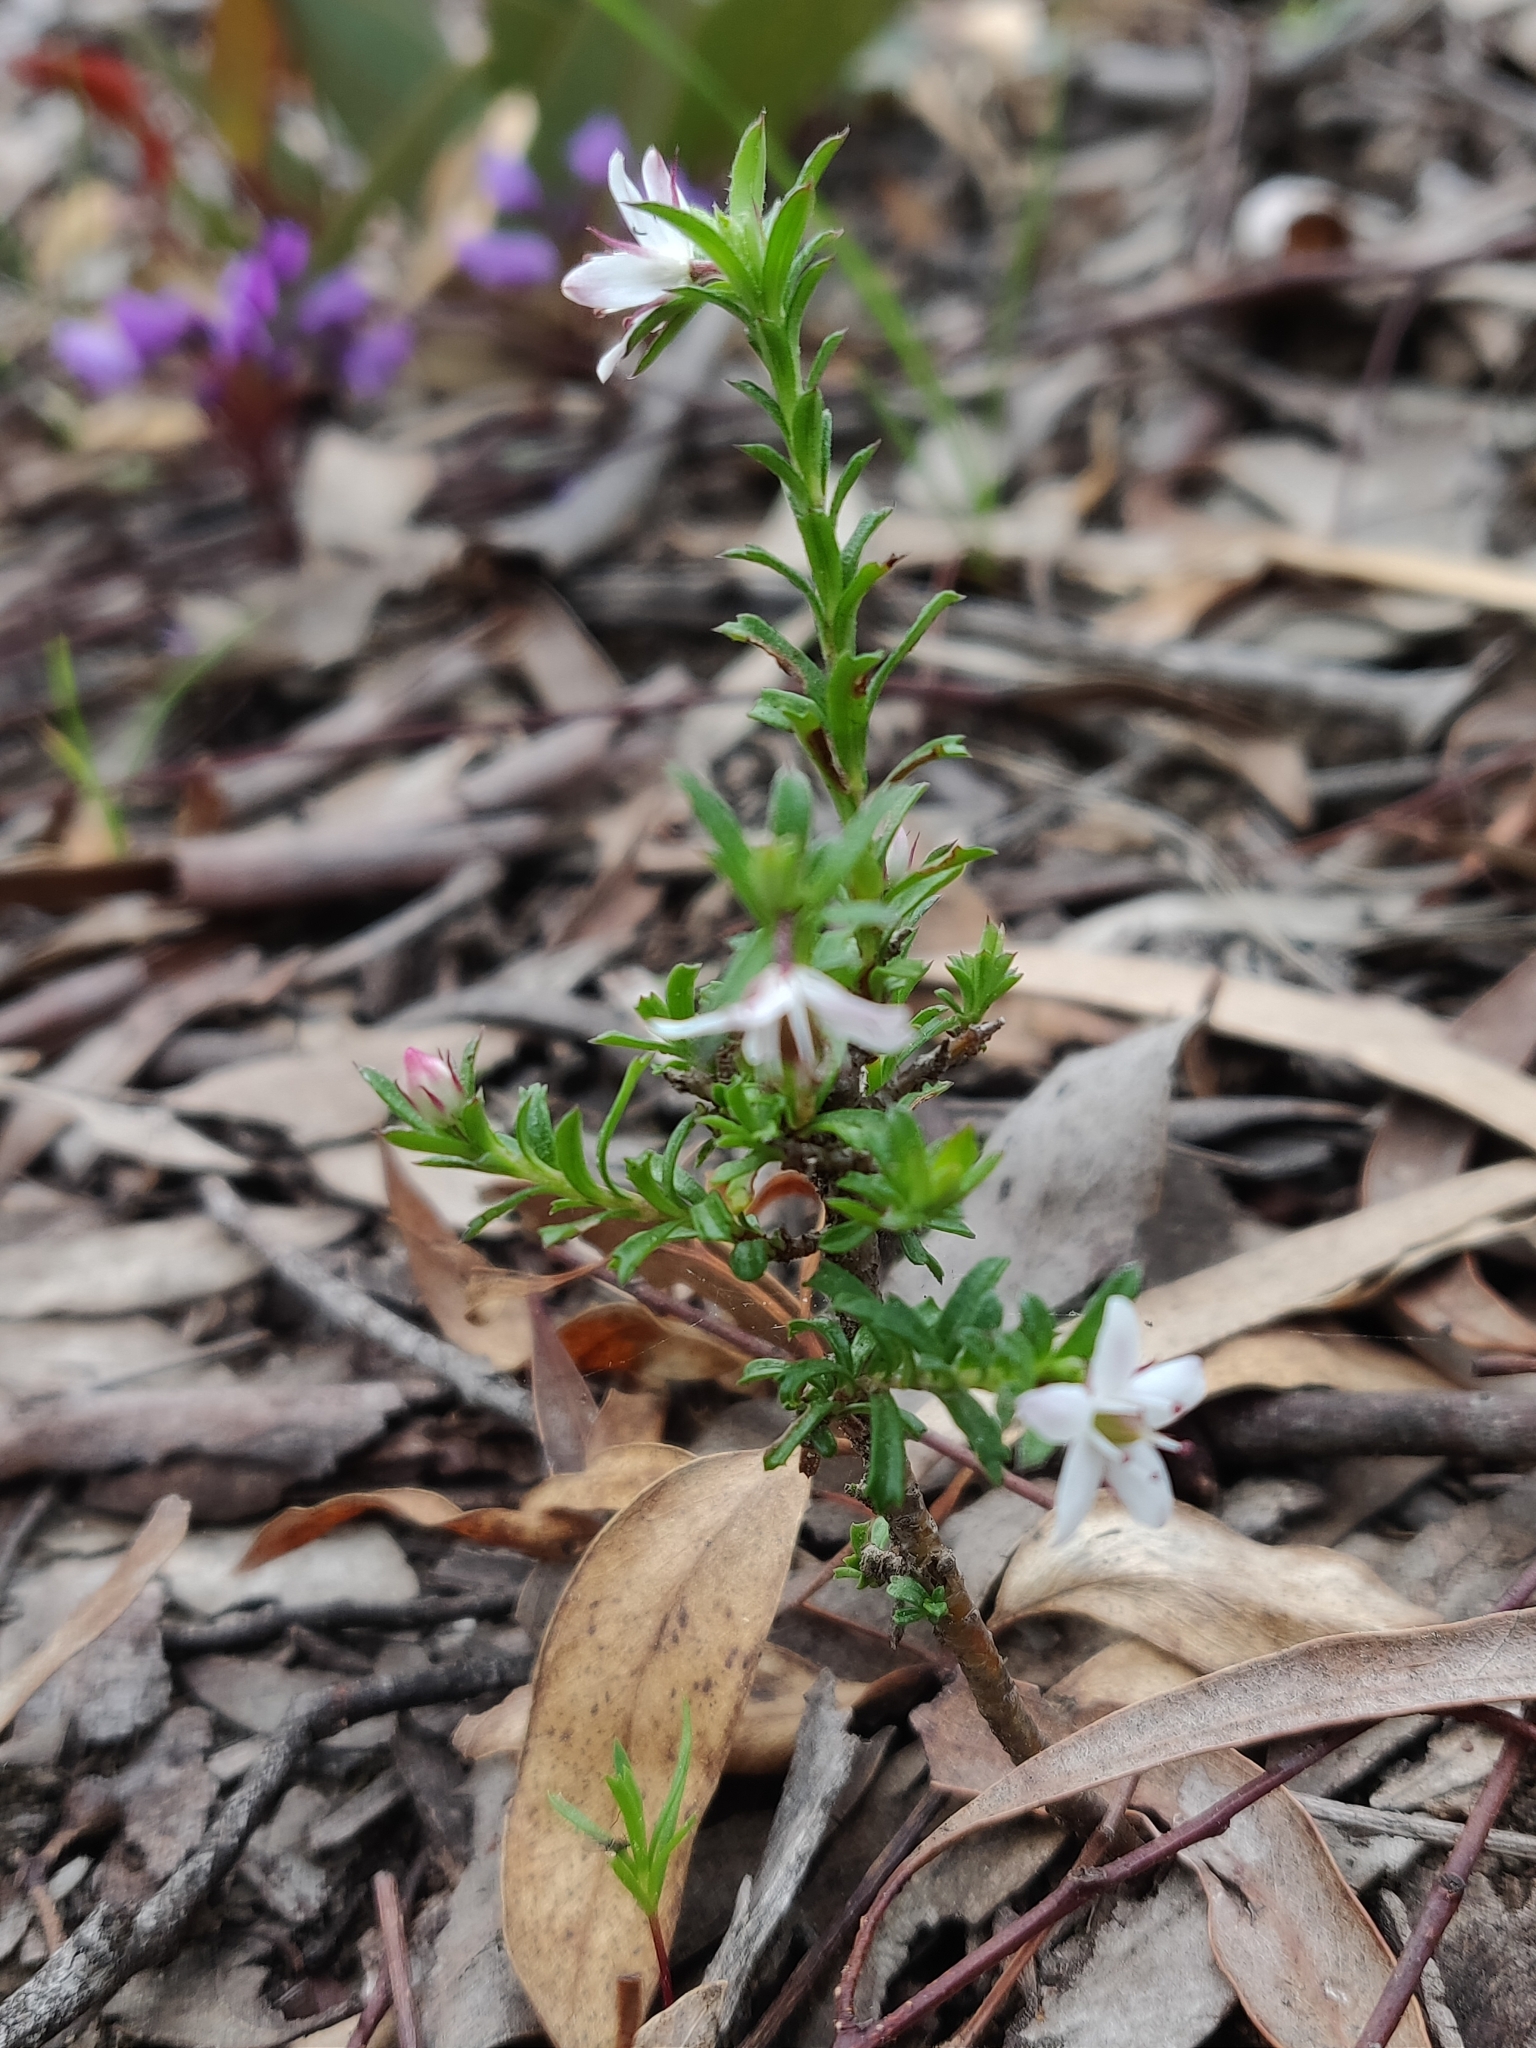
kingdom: Plantae
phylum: Tracheophyta
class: Magnoliopsida
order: Apiales
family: Pittosporaceae
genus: Rhytidosporum
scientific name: Rhytidosporum procumbens
